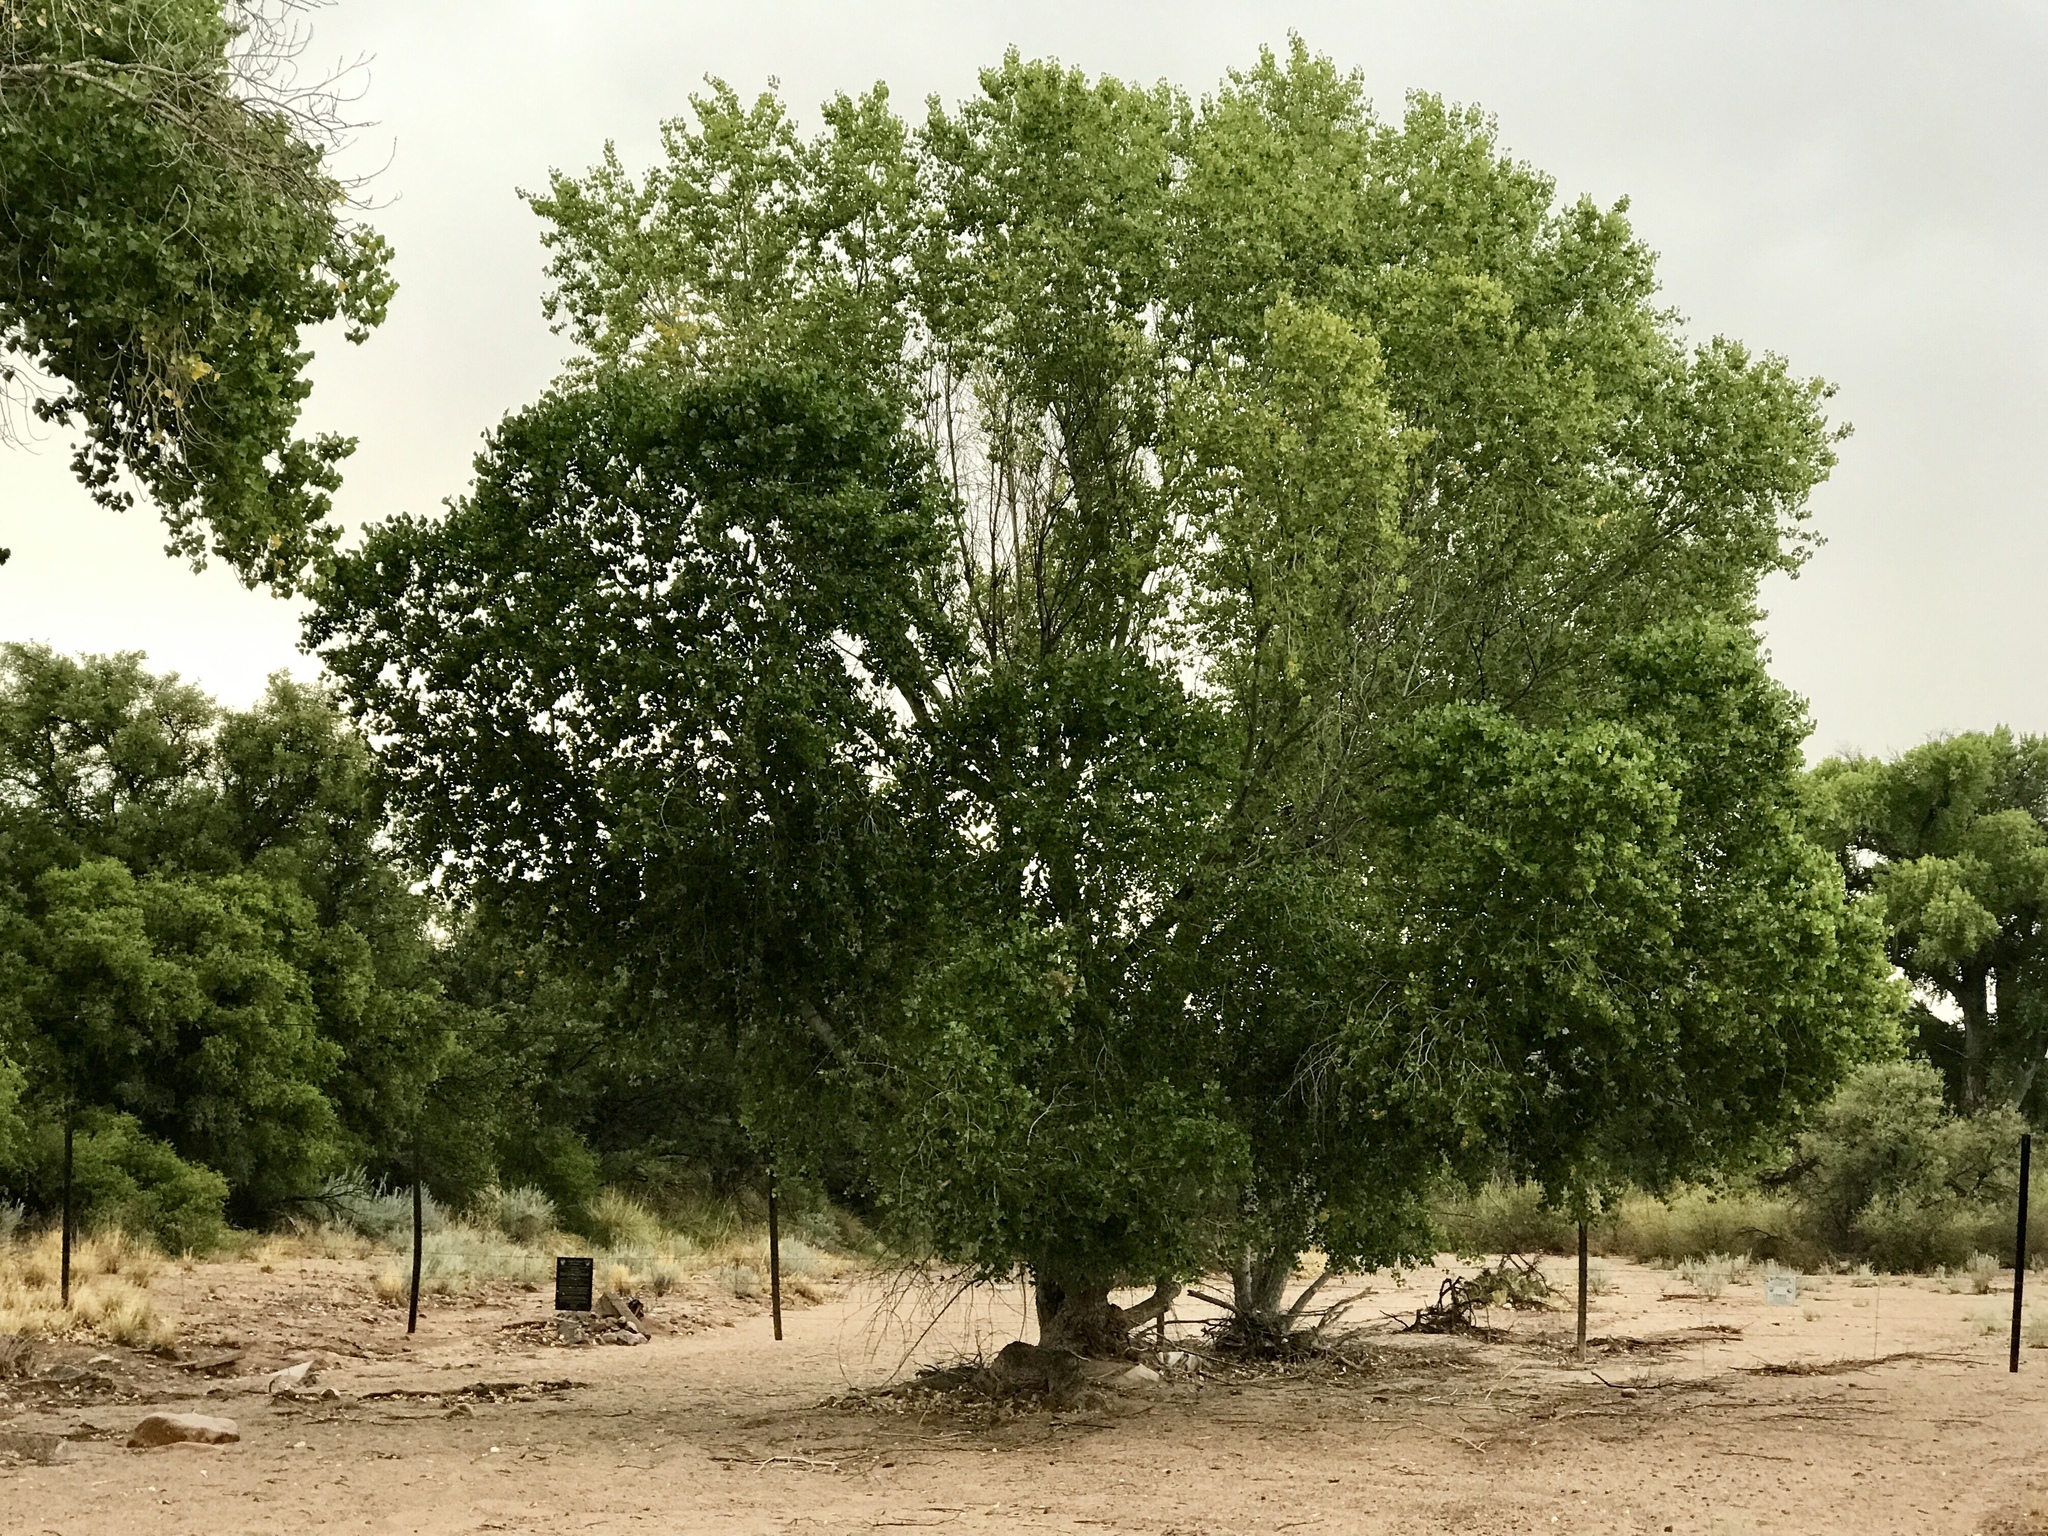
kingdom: Plantae
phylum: Tracheophyta
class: Magnoliopsida
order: Malpighiales
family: Salicaceae
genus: Populus
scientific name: Populus fremontii
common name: Fremont's cottonwood
